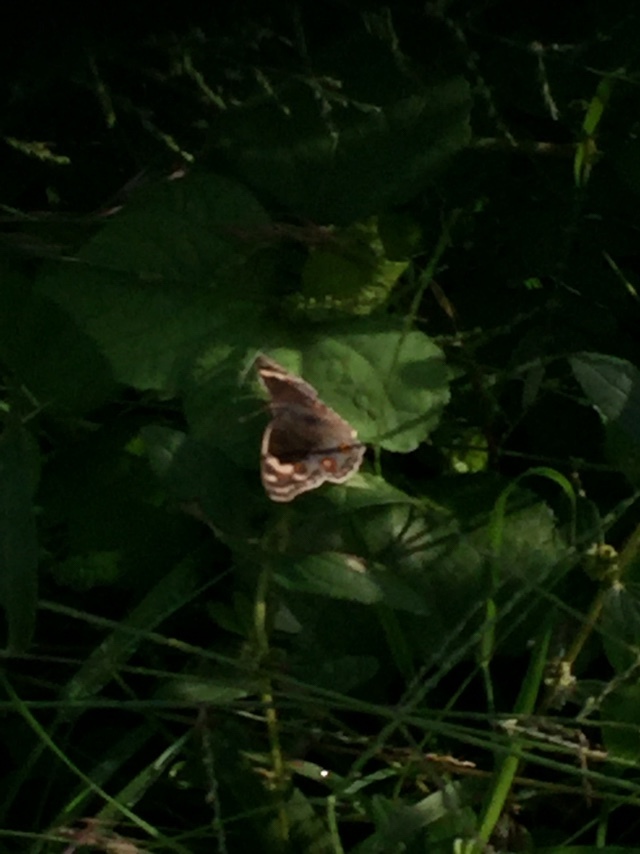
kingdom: Animalia
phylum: Arthropoda
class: Insecta
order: Lepidoptera
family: Nymphalidae
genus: Junonia
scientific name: Junonia orithya
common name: Blue pansy
